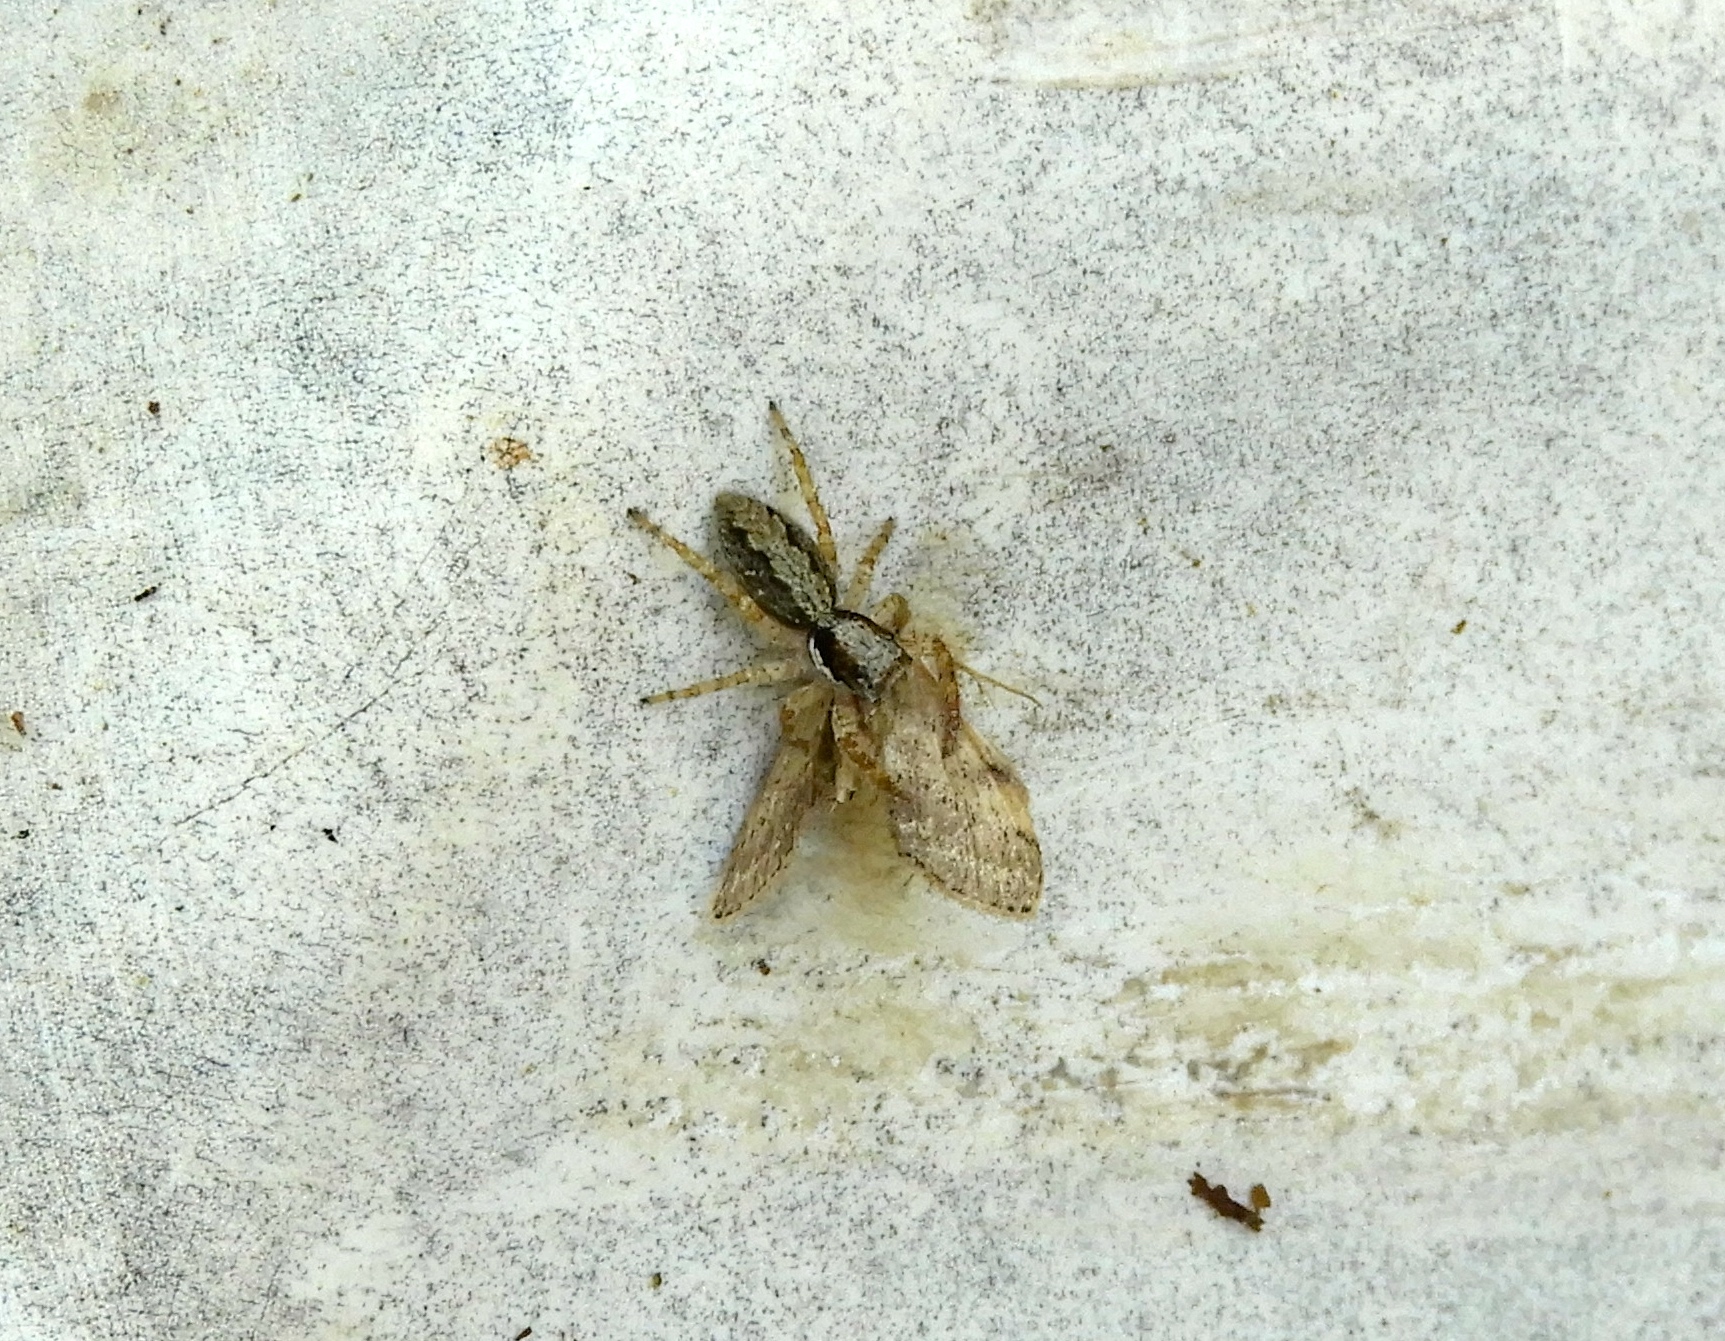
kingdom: Animalia
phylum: Arthropoda
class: Arachnida
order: Araneae
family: Salticidae
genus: Balmaceda
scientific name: Balmaceda
